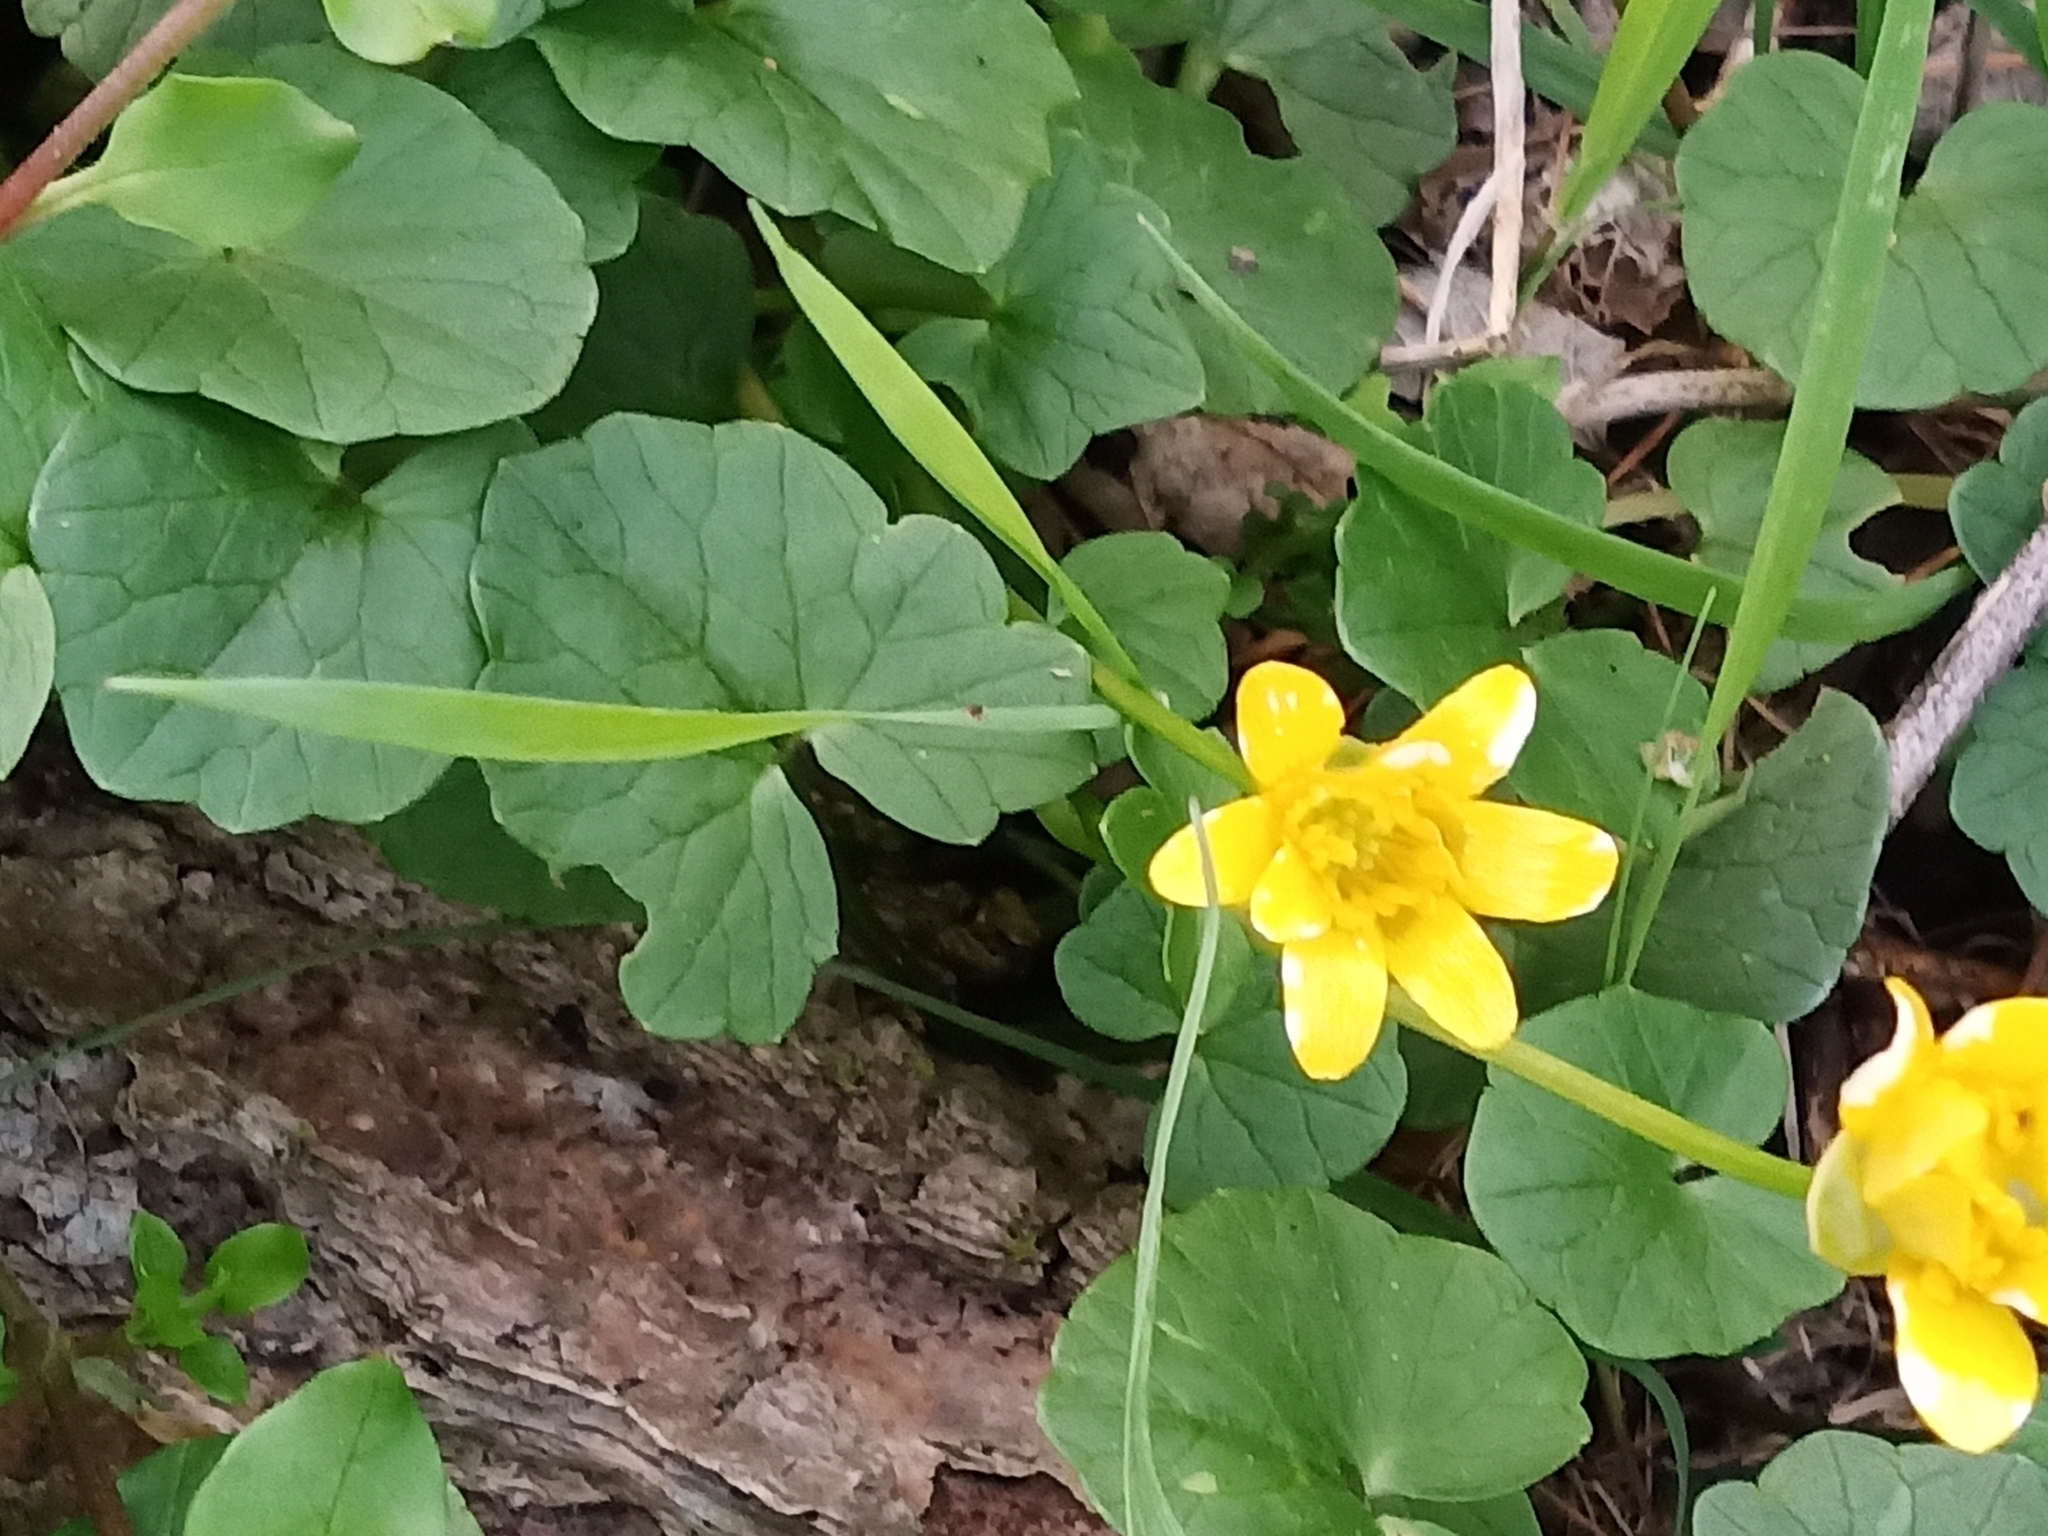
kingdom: Plantae
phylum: Tracheophyta
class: Magnoliopsida
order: Ranunculales
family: Ranunculaceae
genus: Ficaria
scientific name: Ficaria verna
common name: Lesser celandine
